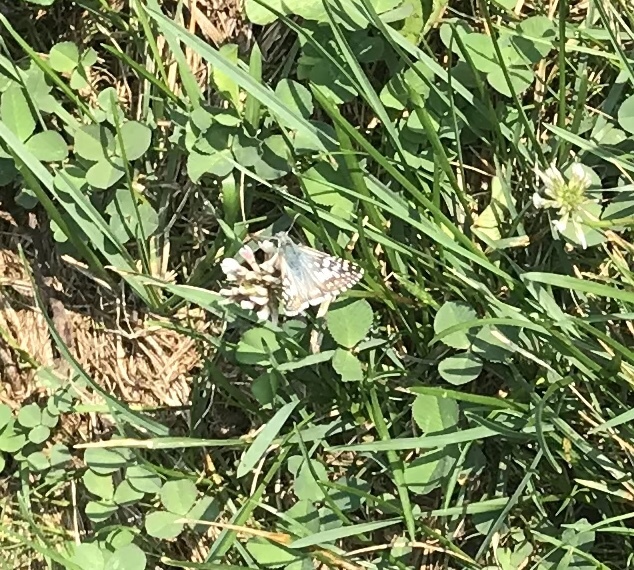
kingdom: Animalia
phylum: Arthropoda
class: Insecta
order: Lepidoptera
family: Hesperiidae
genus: Burnsius
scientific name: Burnsius communis
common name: Common checkered-skipper
